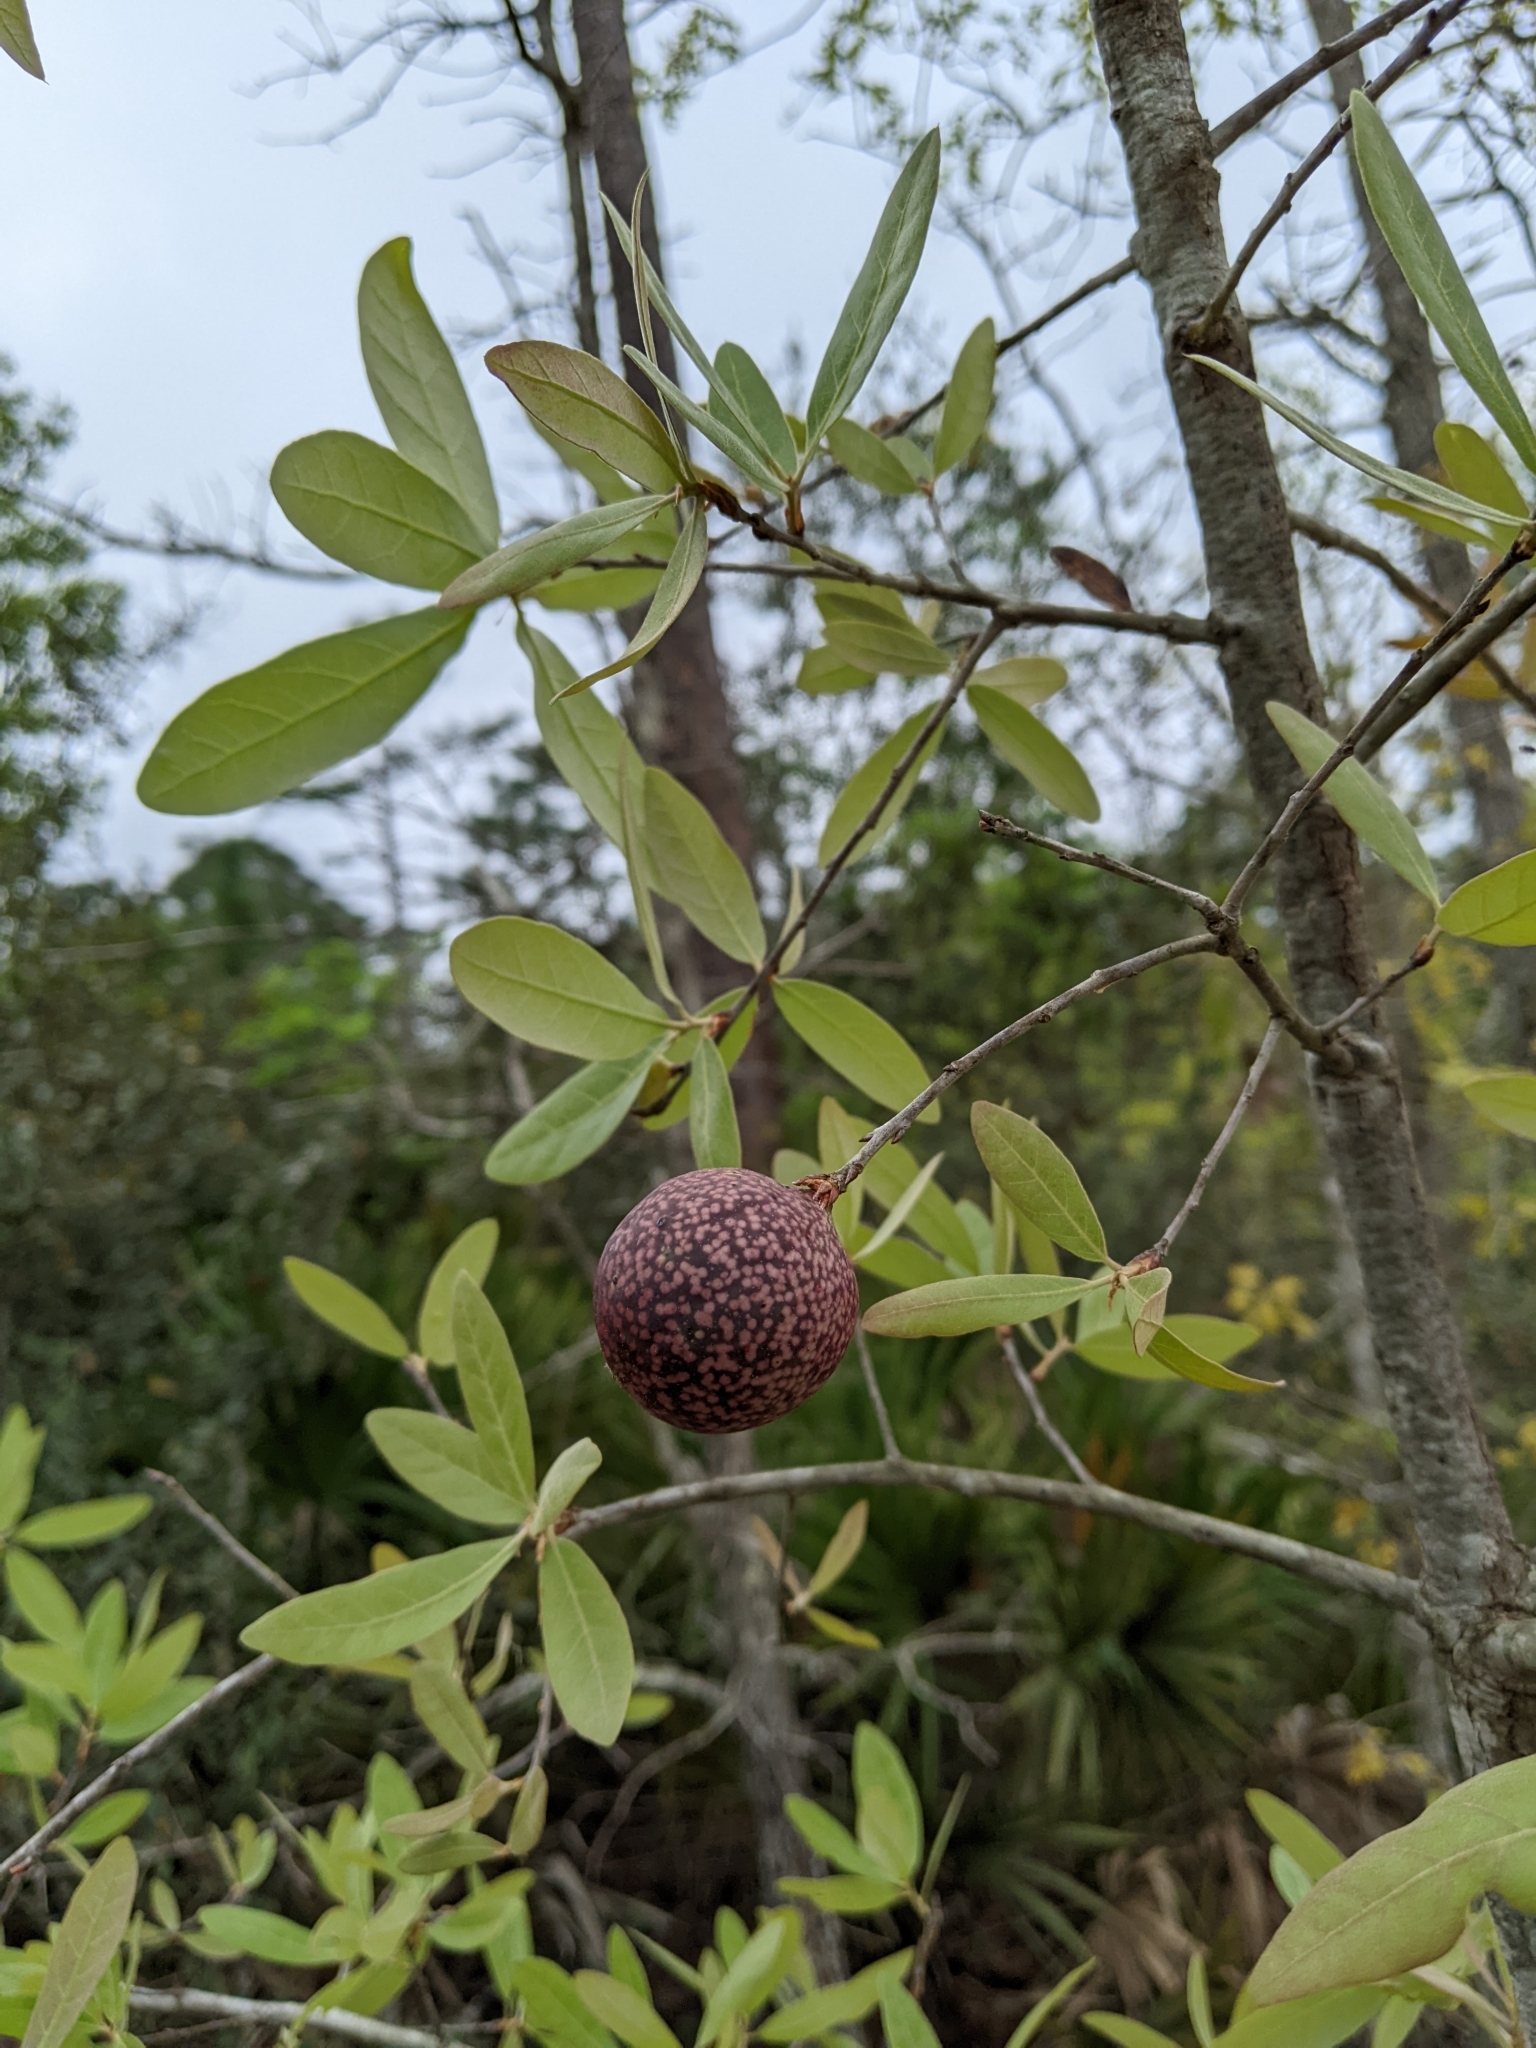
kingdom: Plantae
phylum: Tracheophyta
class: Magnoliopsida
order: Fagales
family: Fagaceae
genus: Quercus
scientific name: Quercus incana
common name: Bluejack oak
